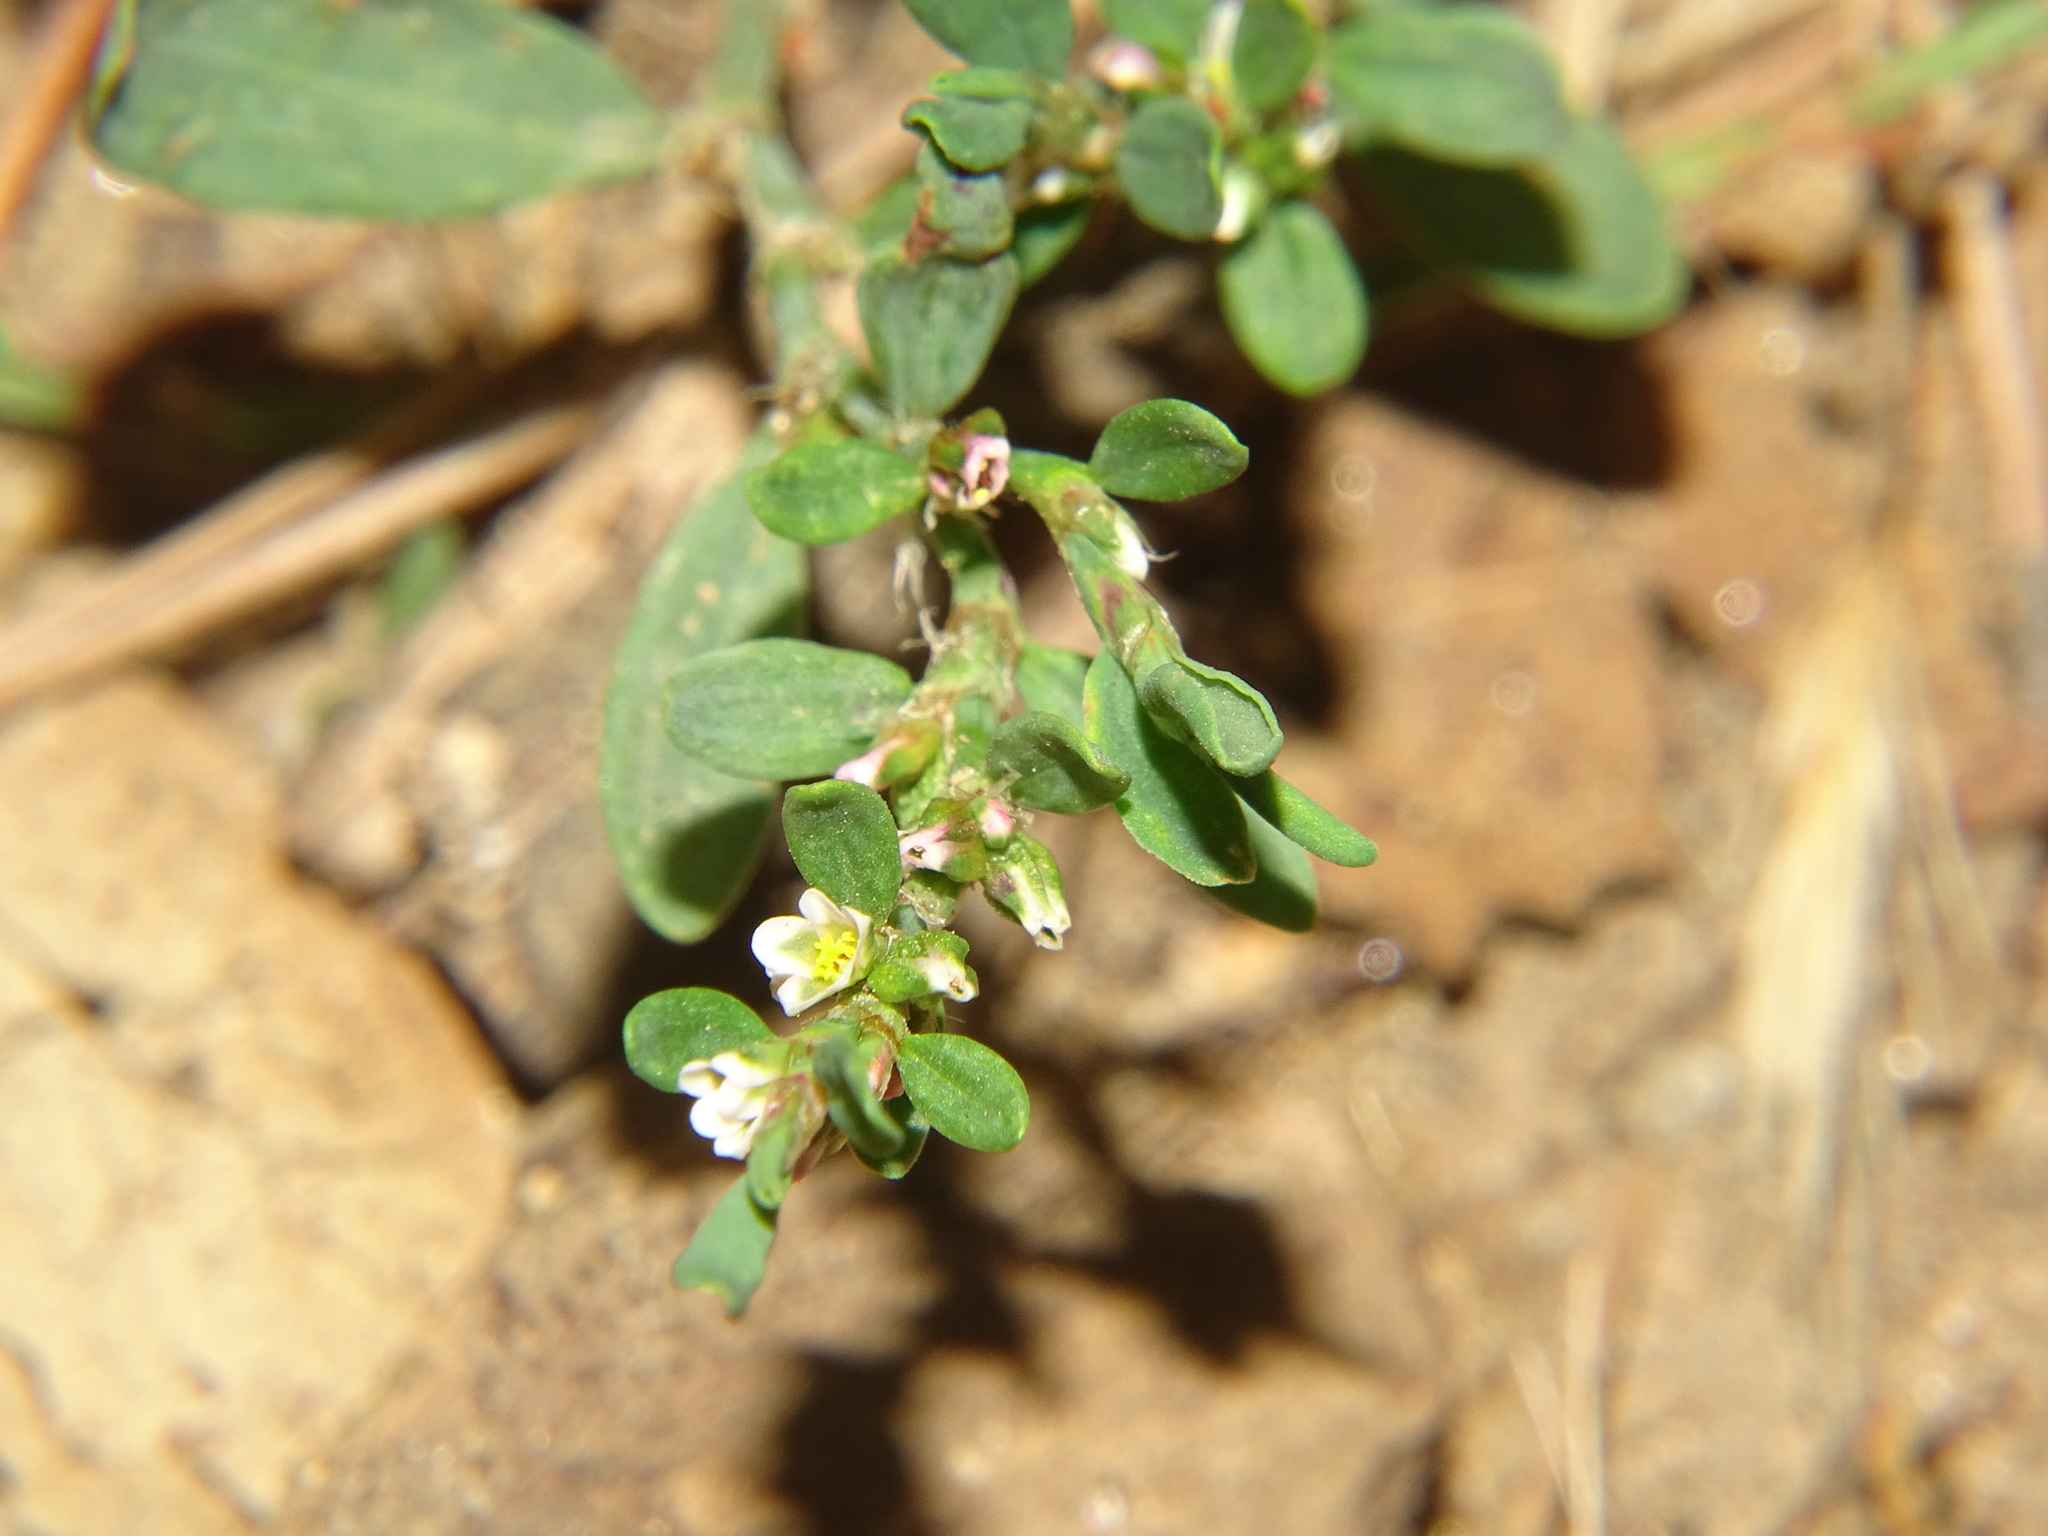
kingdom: Plantae
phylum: Tracheophyta
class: Magnoliopsida
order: Caryophyllales
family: Polygonaceae
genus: Polygonum
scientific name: Polygonum aviculare
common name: Prostrate knotweed
